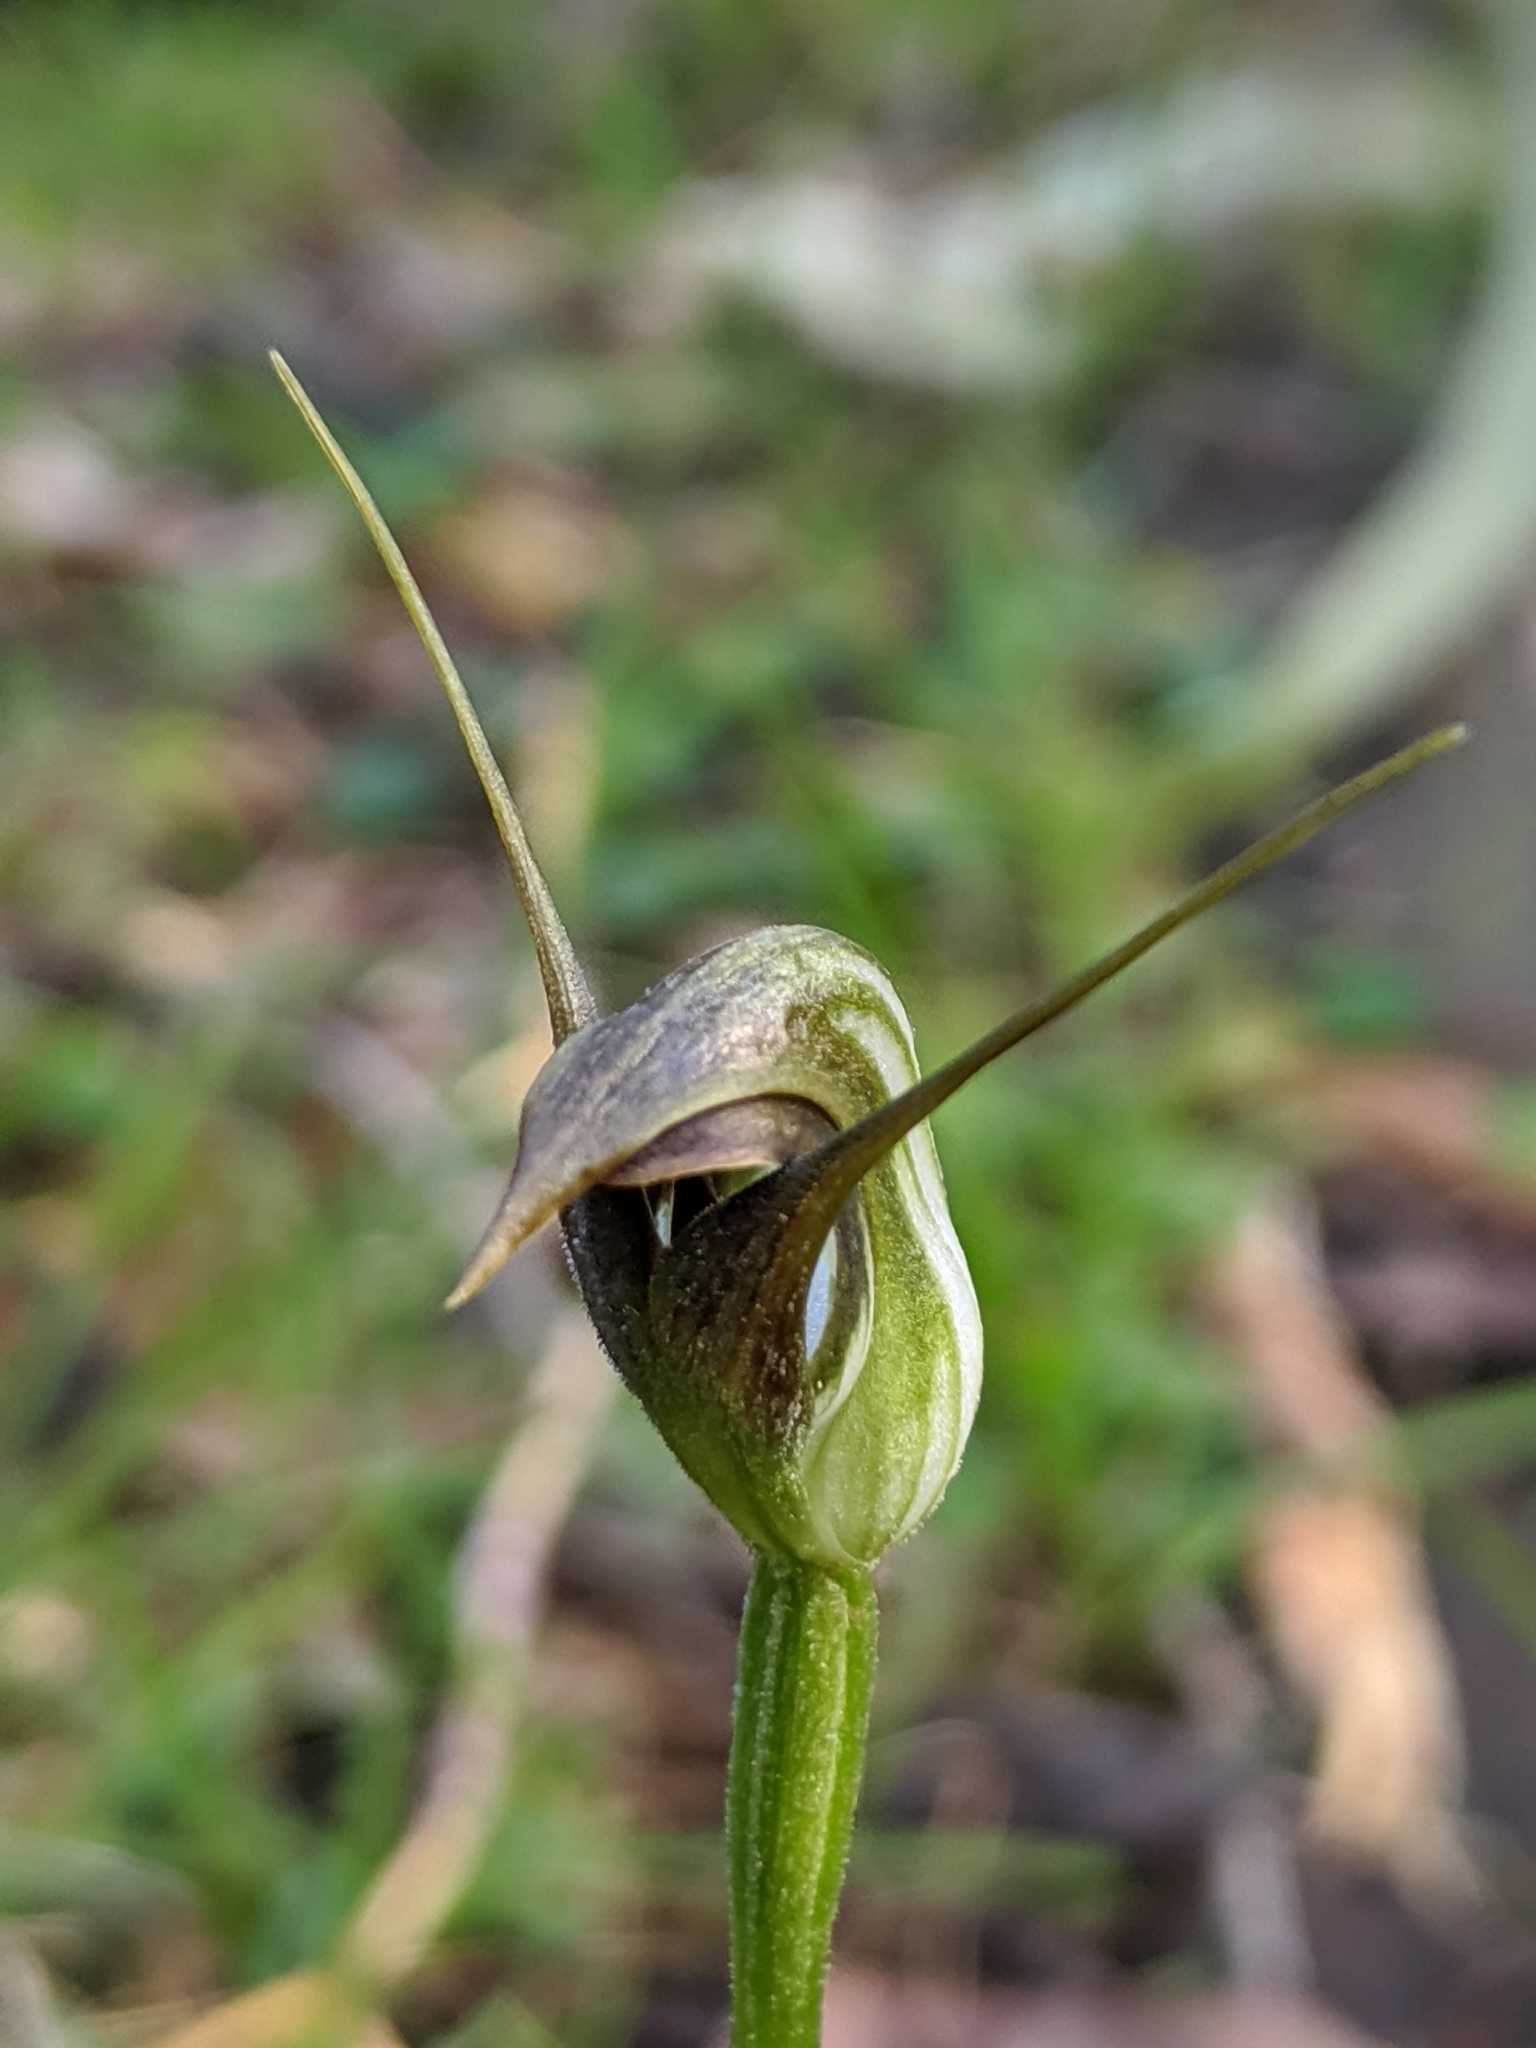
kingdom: Plantae
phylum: Tracheophyta
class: Liliopsida
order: Asparagales
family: Orchidaceae
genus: Pterostylis
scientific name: Pterostylis pedunculata
